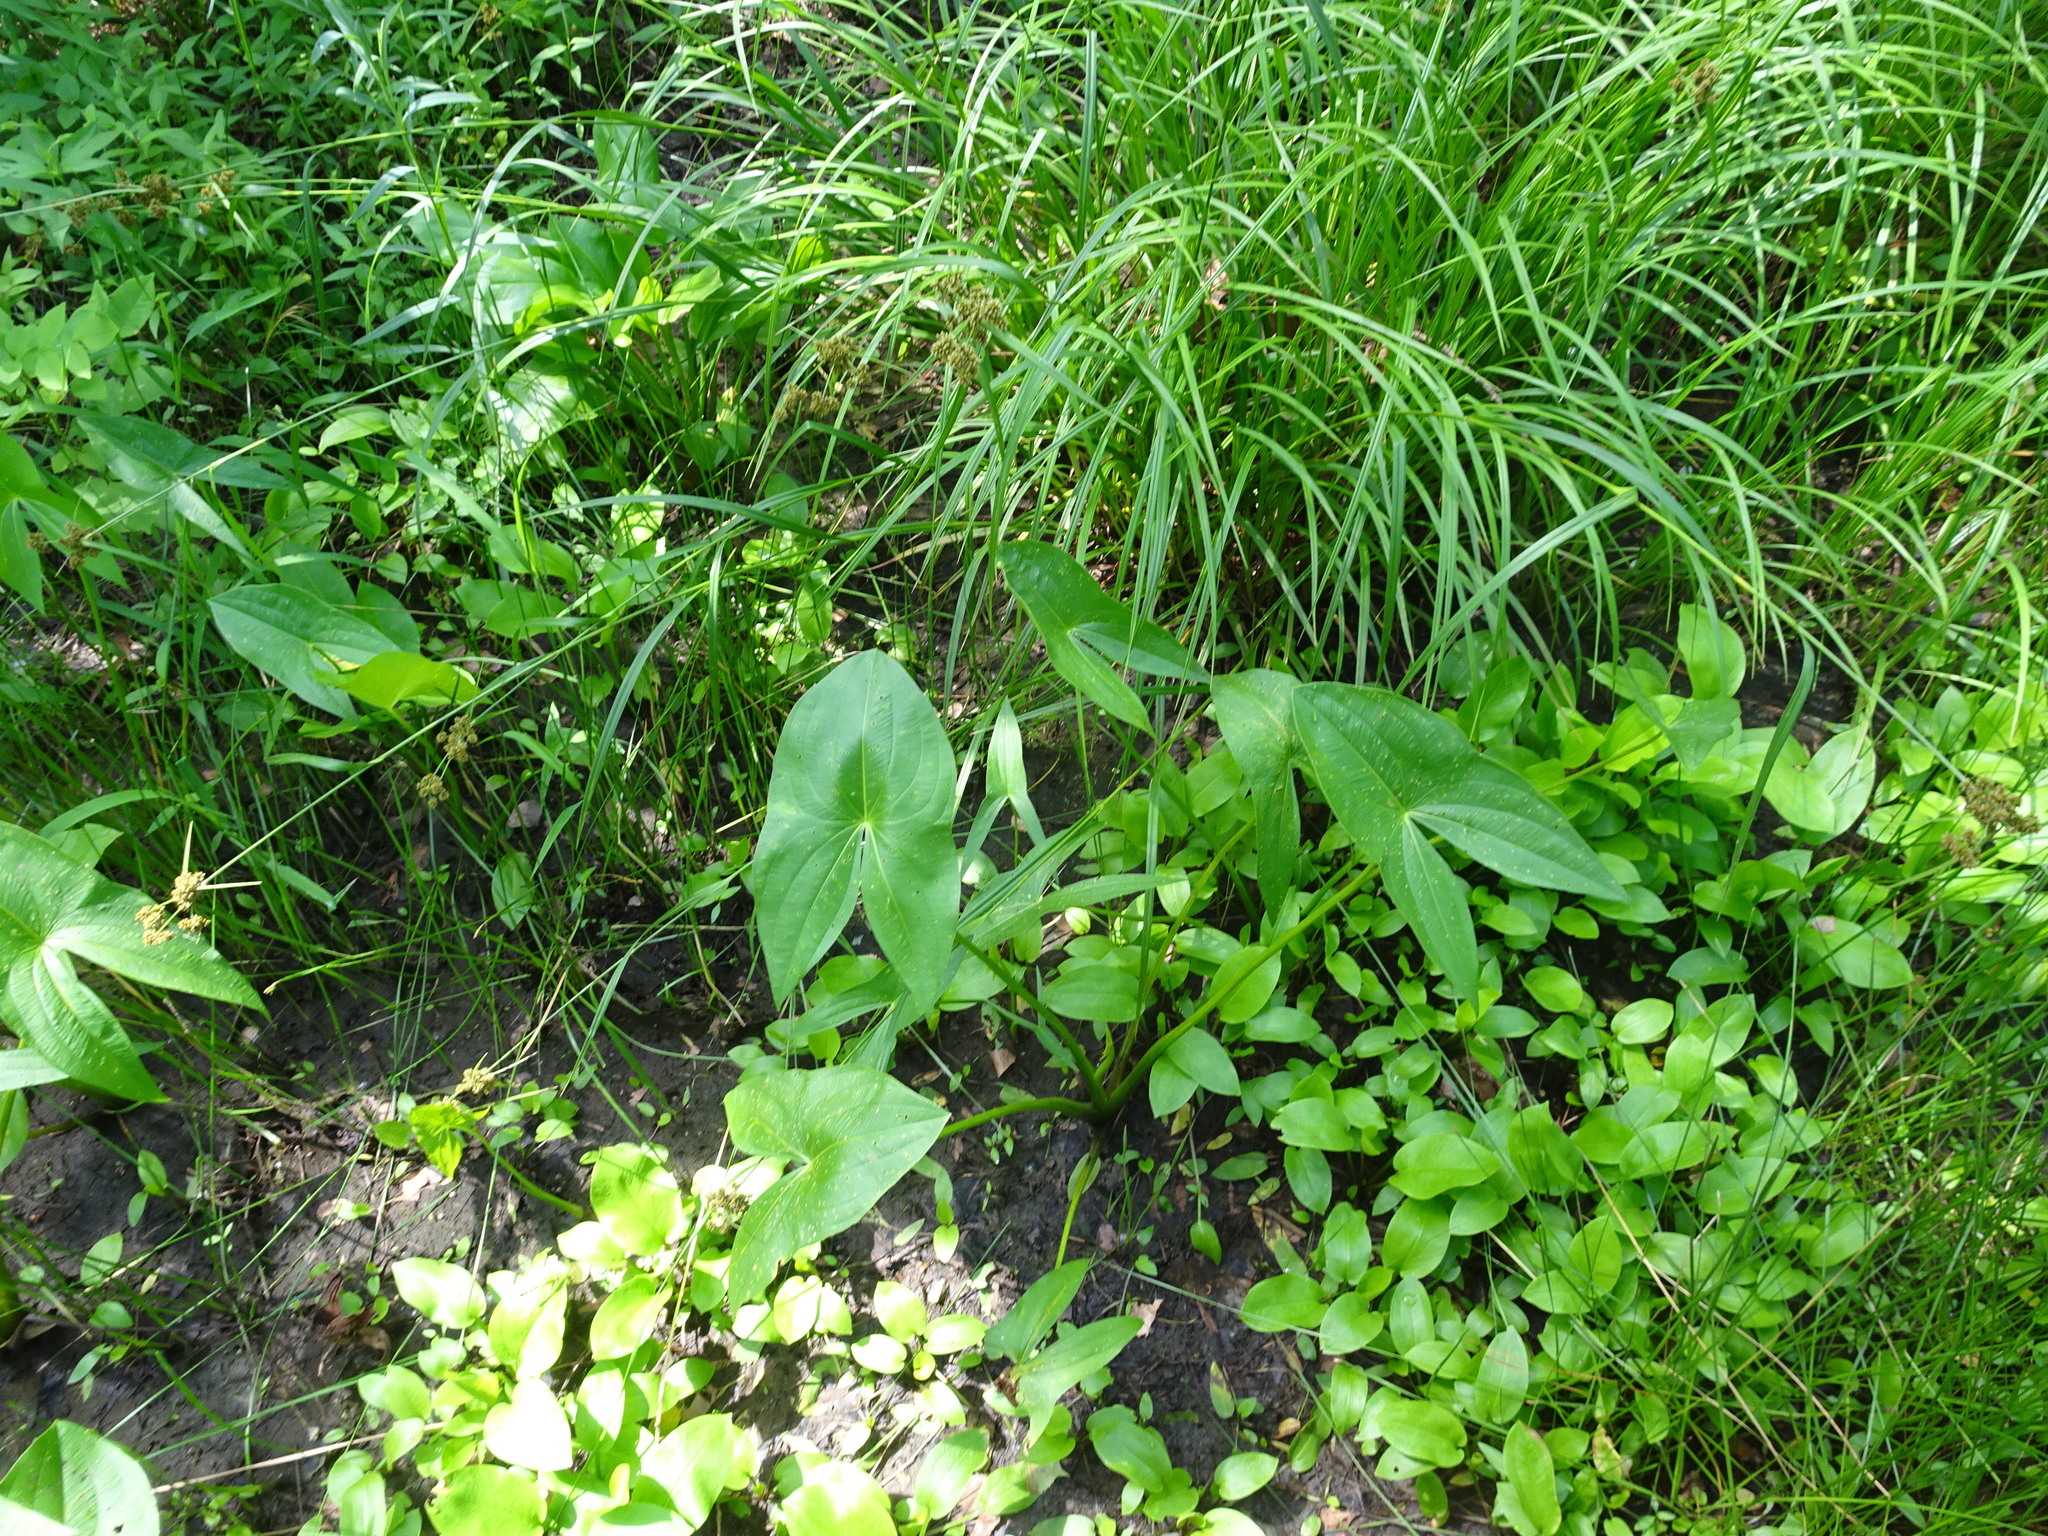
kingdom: Plantae
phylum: Tracheophyta
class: Liliopsida
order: Alismatales
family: Alismataceae
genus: Sagittaria
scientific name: Sagittaria
